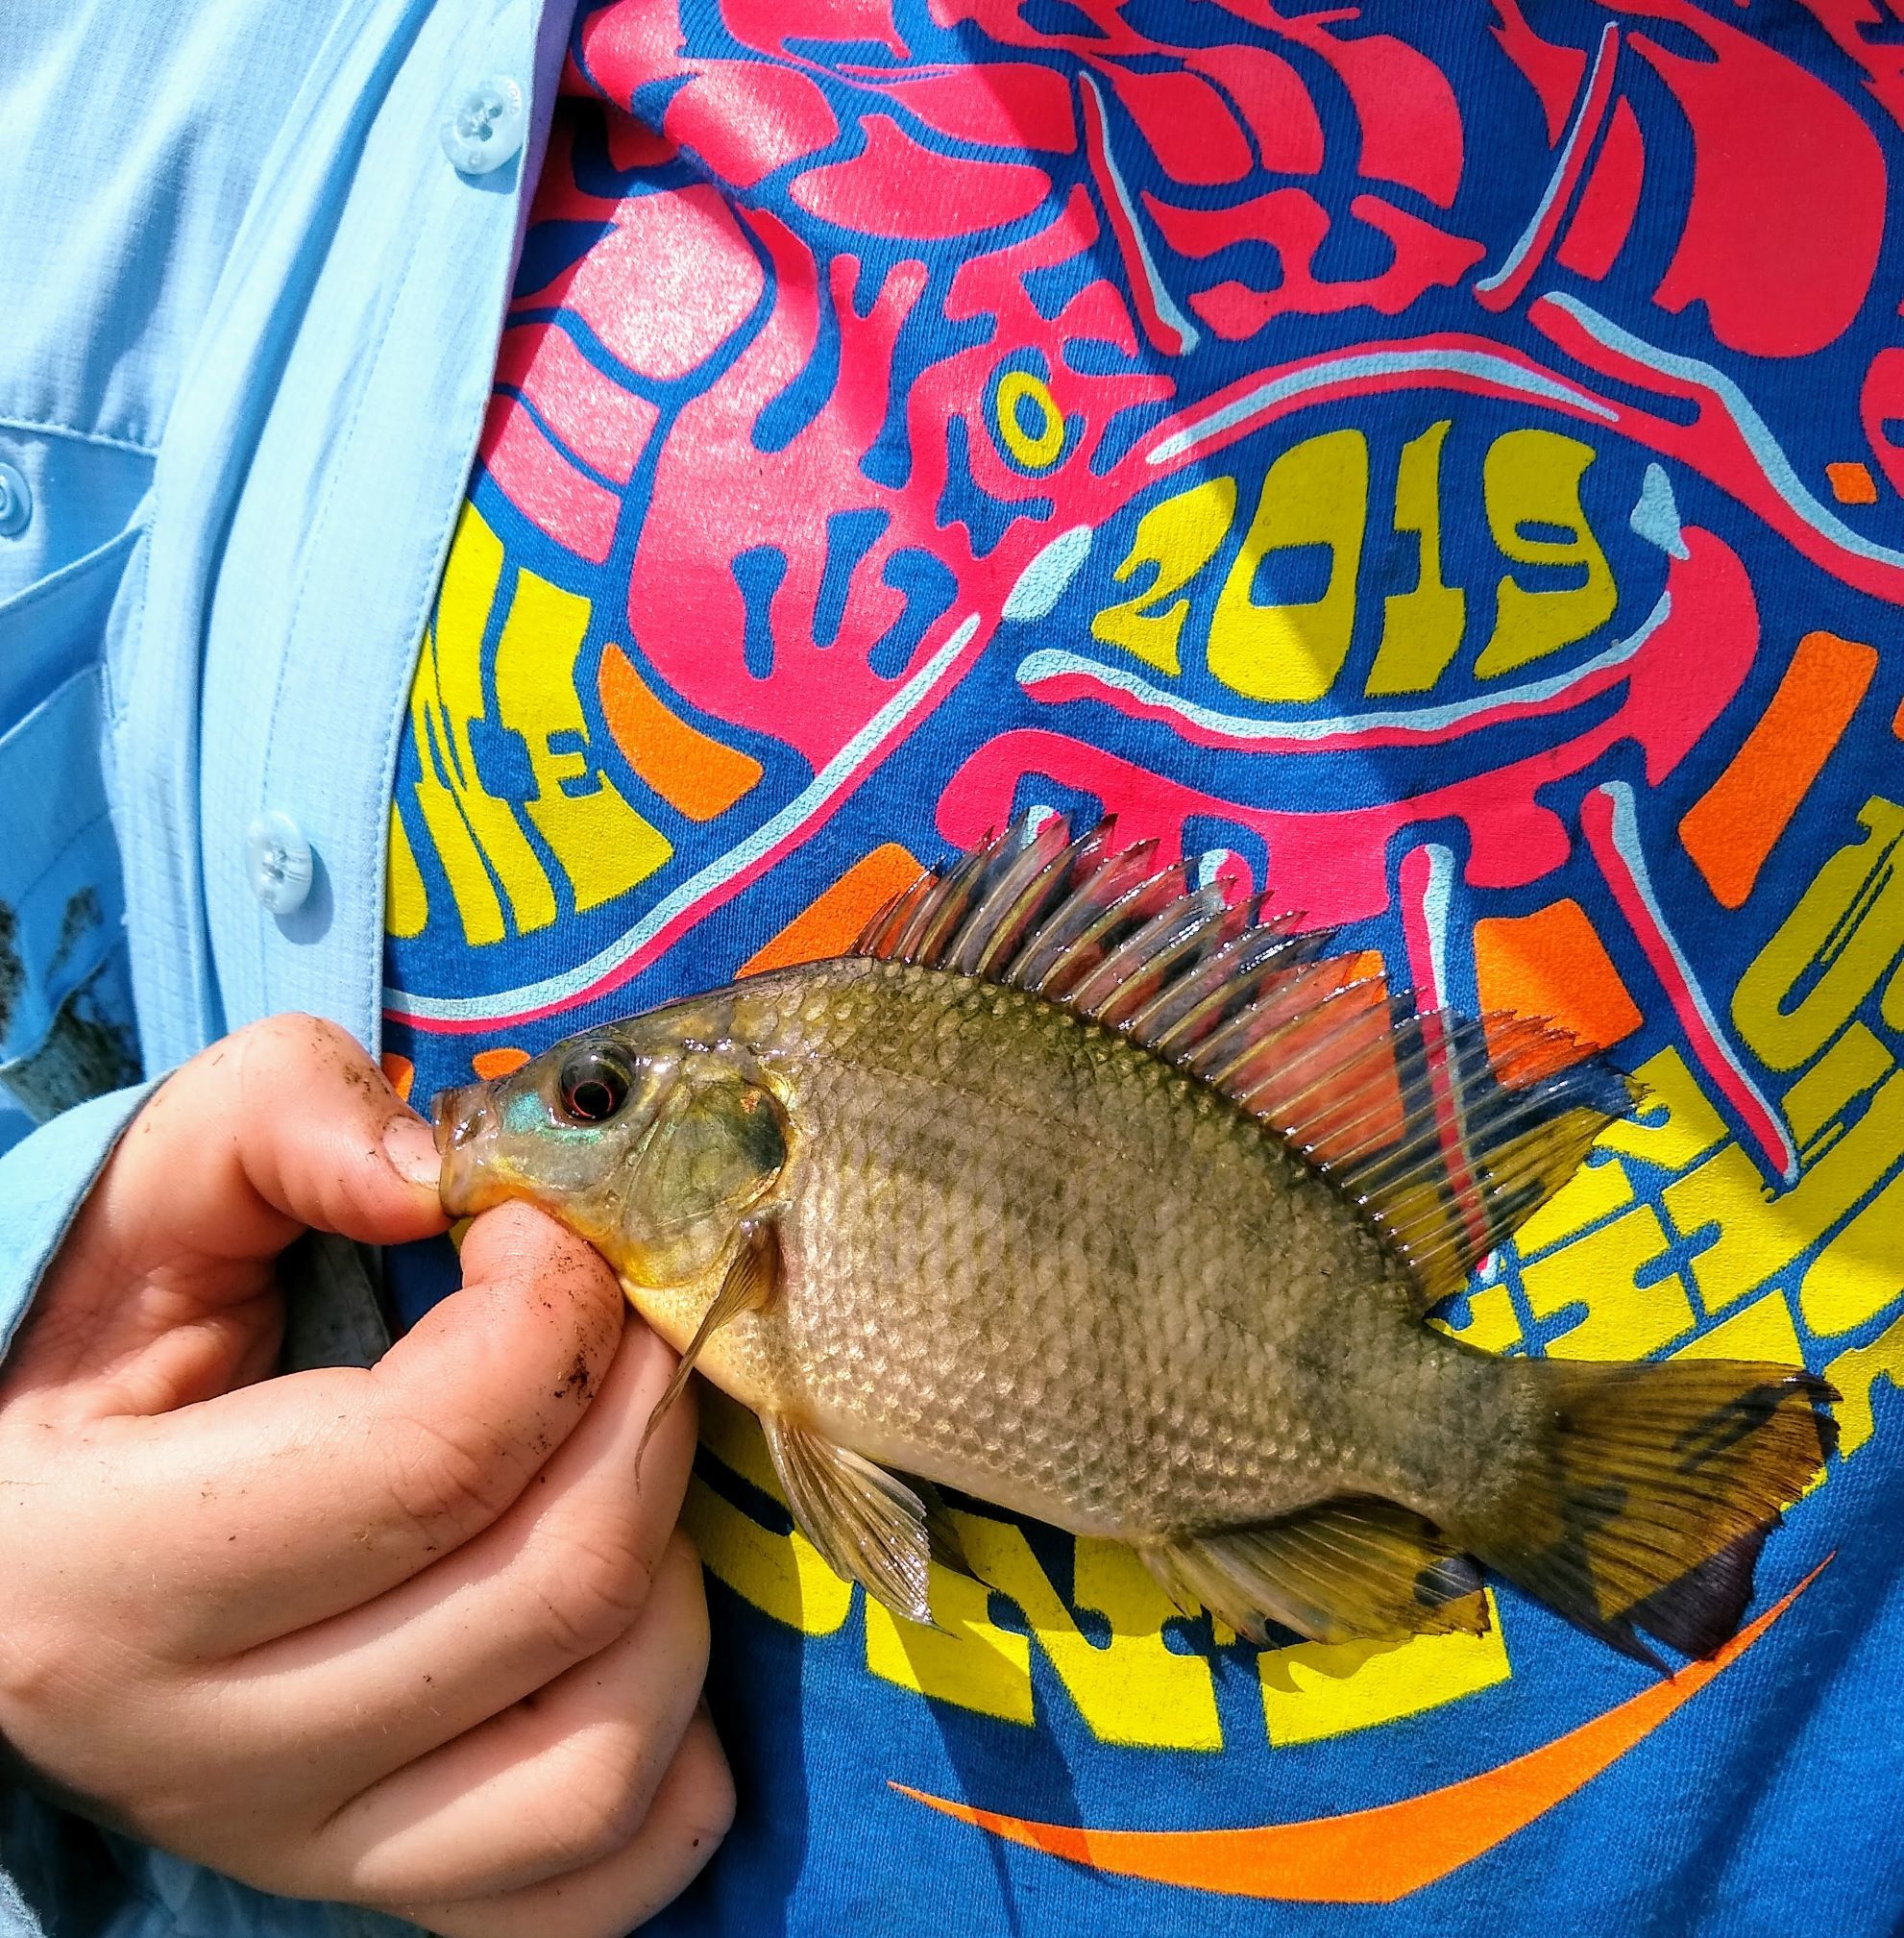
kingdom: Animalia
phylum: Chordata
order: Perciformes
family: Cichlidae
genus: Oreochromis
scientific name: Oreochromis aureus
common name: Blue tilapia
